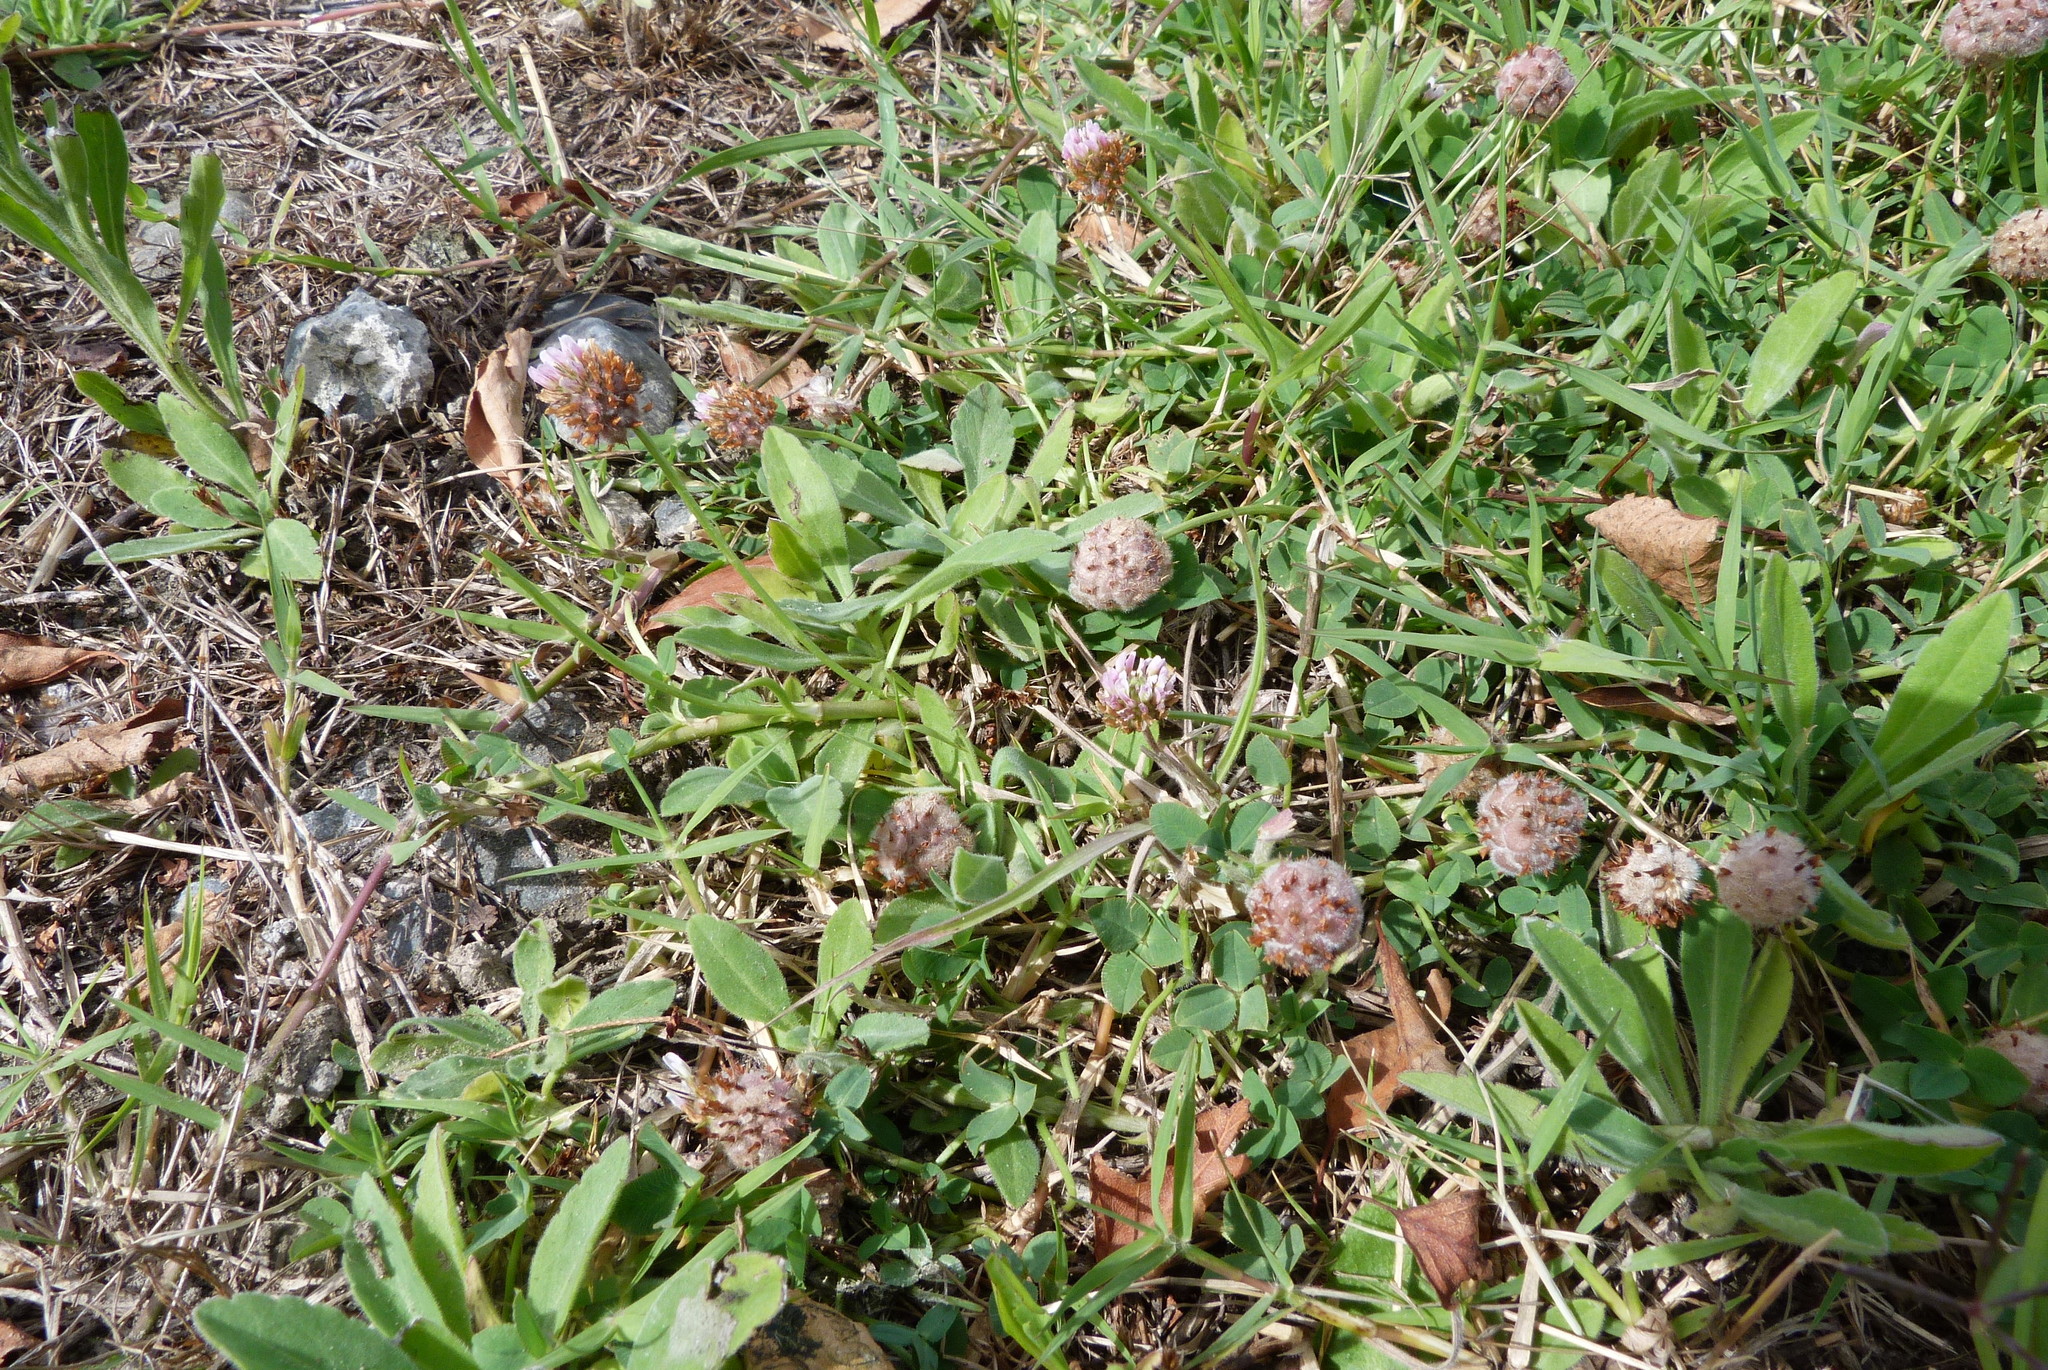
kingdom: Plantae
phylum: Tracheophyta
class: Magnoliopsida
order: Fabales
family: Fabaceae
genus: Trifolium
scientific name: Trifolium fragiferum
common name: Strawberry clover
